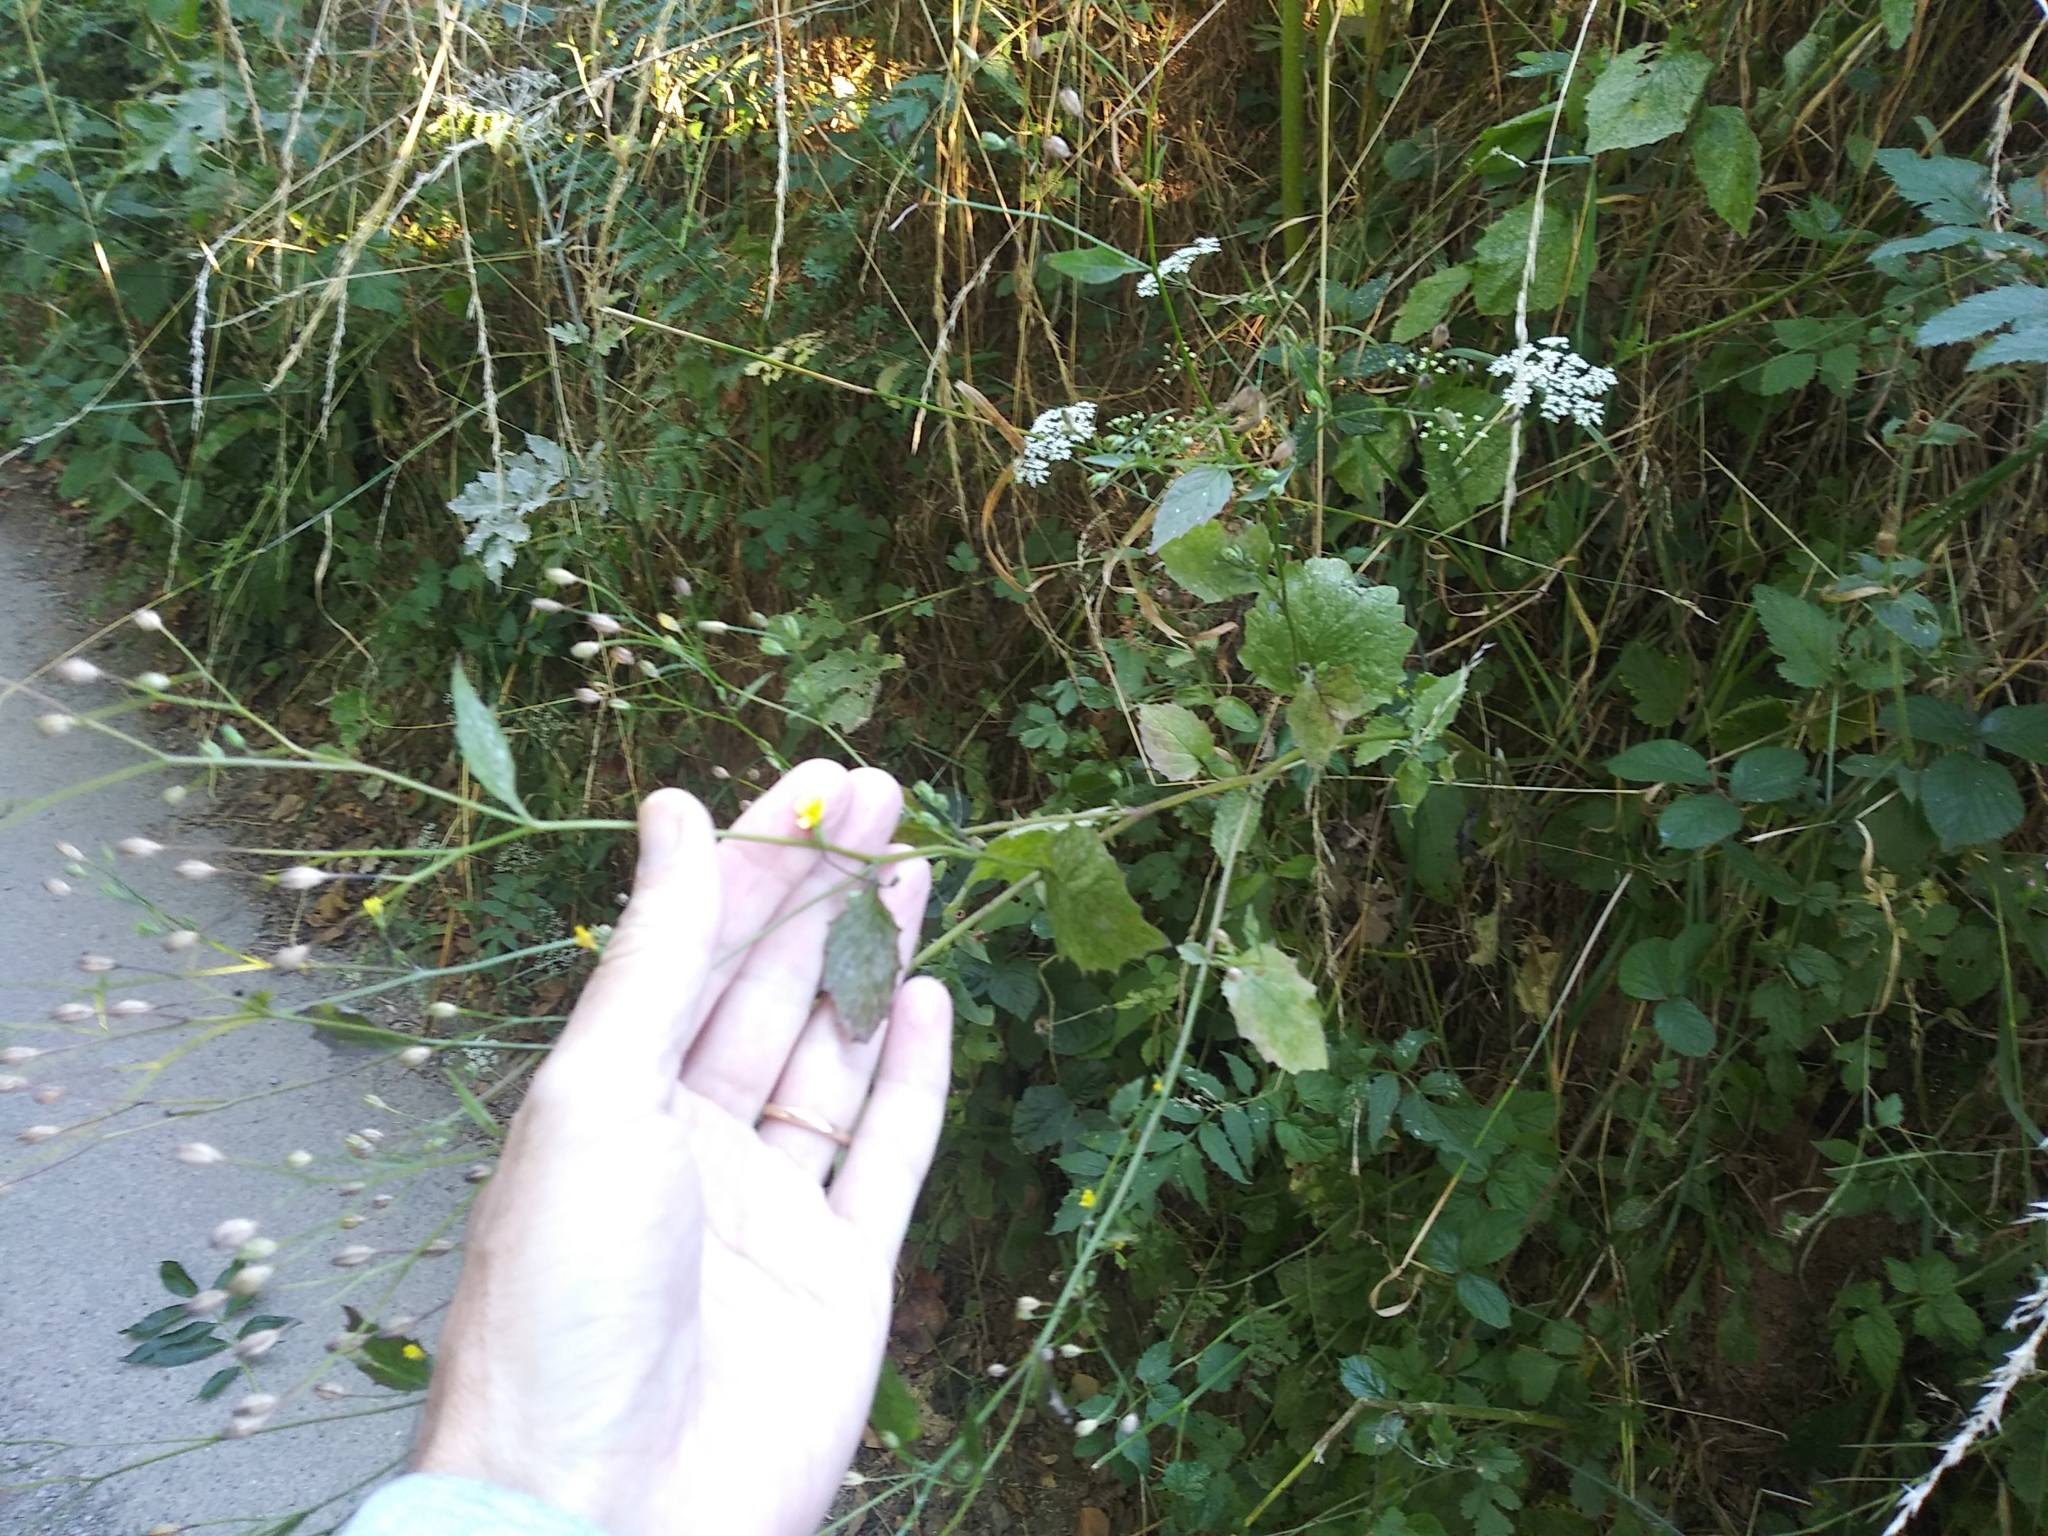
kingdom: Plantae
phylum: Tracheophyta
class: Magnoliopsida
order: Asterales
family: Asteraceae
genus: Lapsana
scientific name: Lapsana communis
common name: Nipplewort
